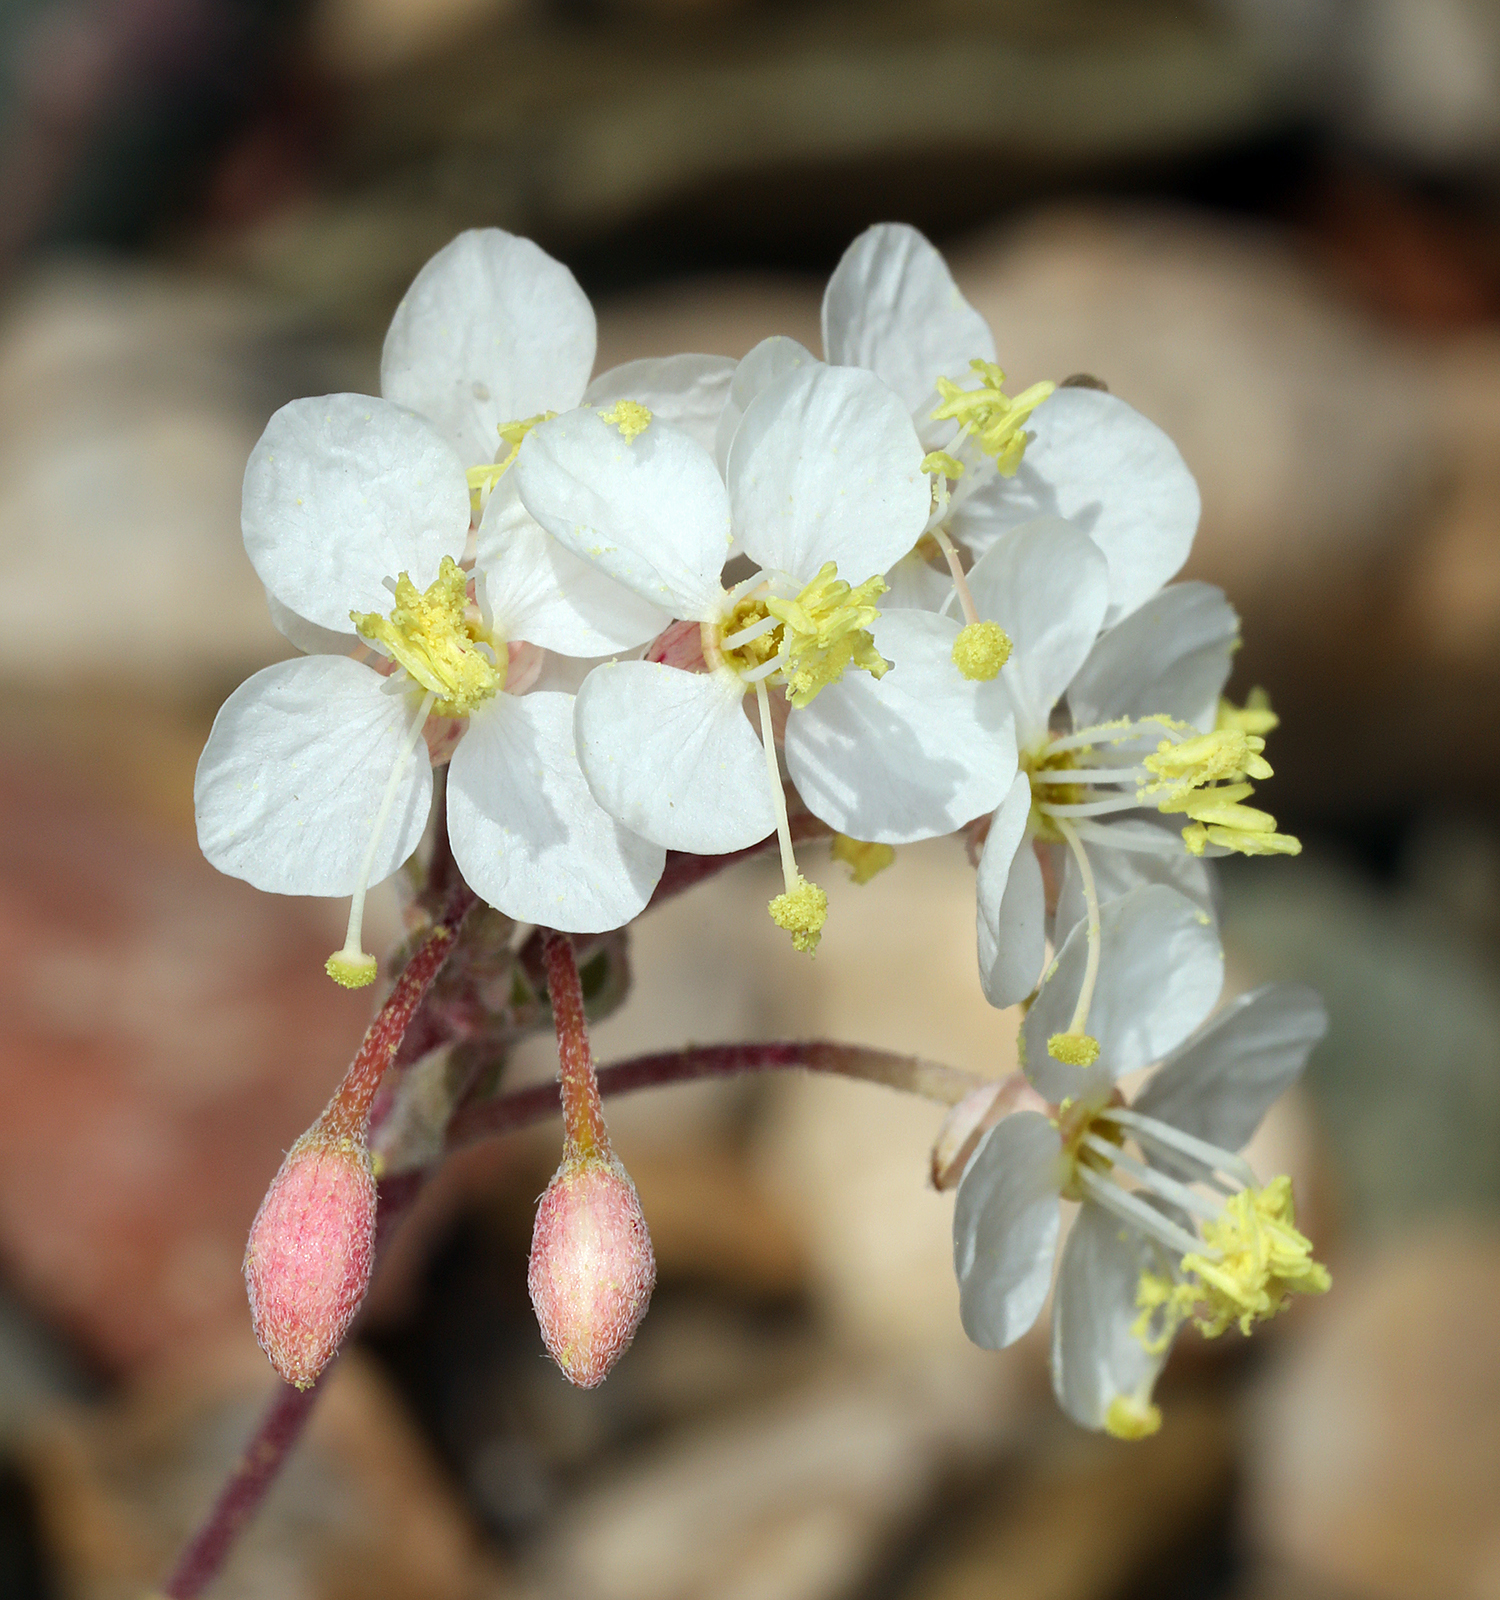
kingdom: Plantae
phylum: Tracheophyta
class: Magnoliopsida
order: Myrtales
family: Onagraceae
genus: Eremothera
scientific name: Eremothera boothii
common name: Booth's evening primrose
